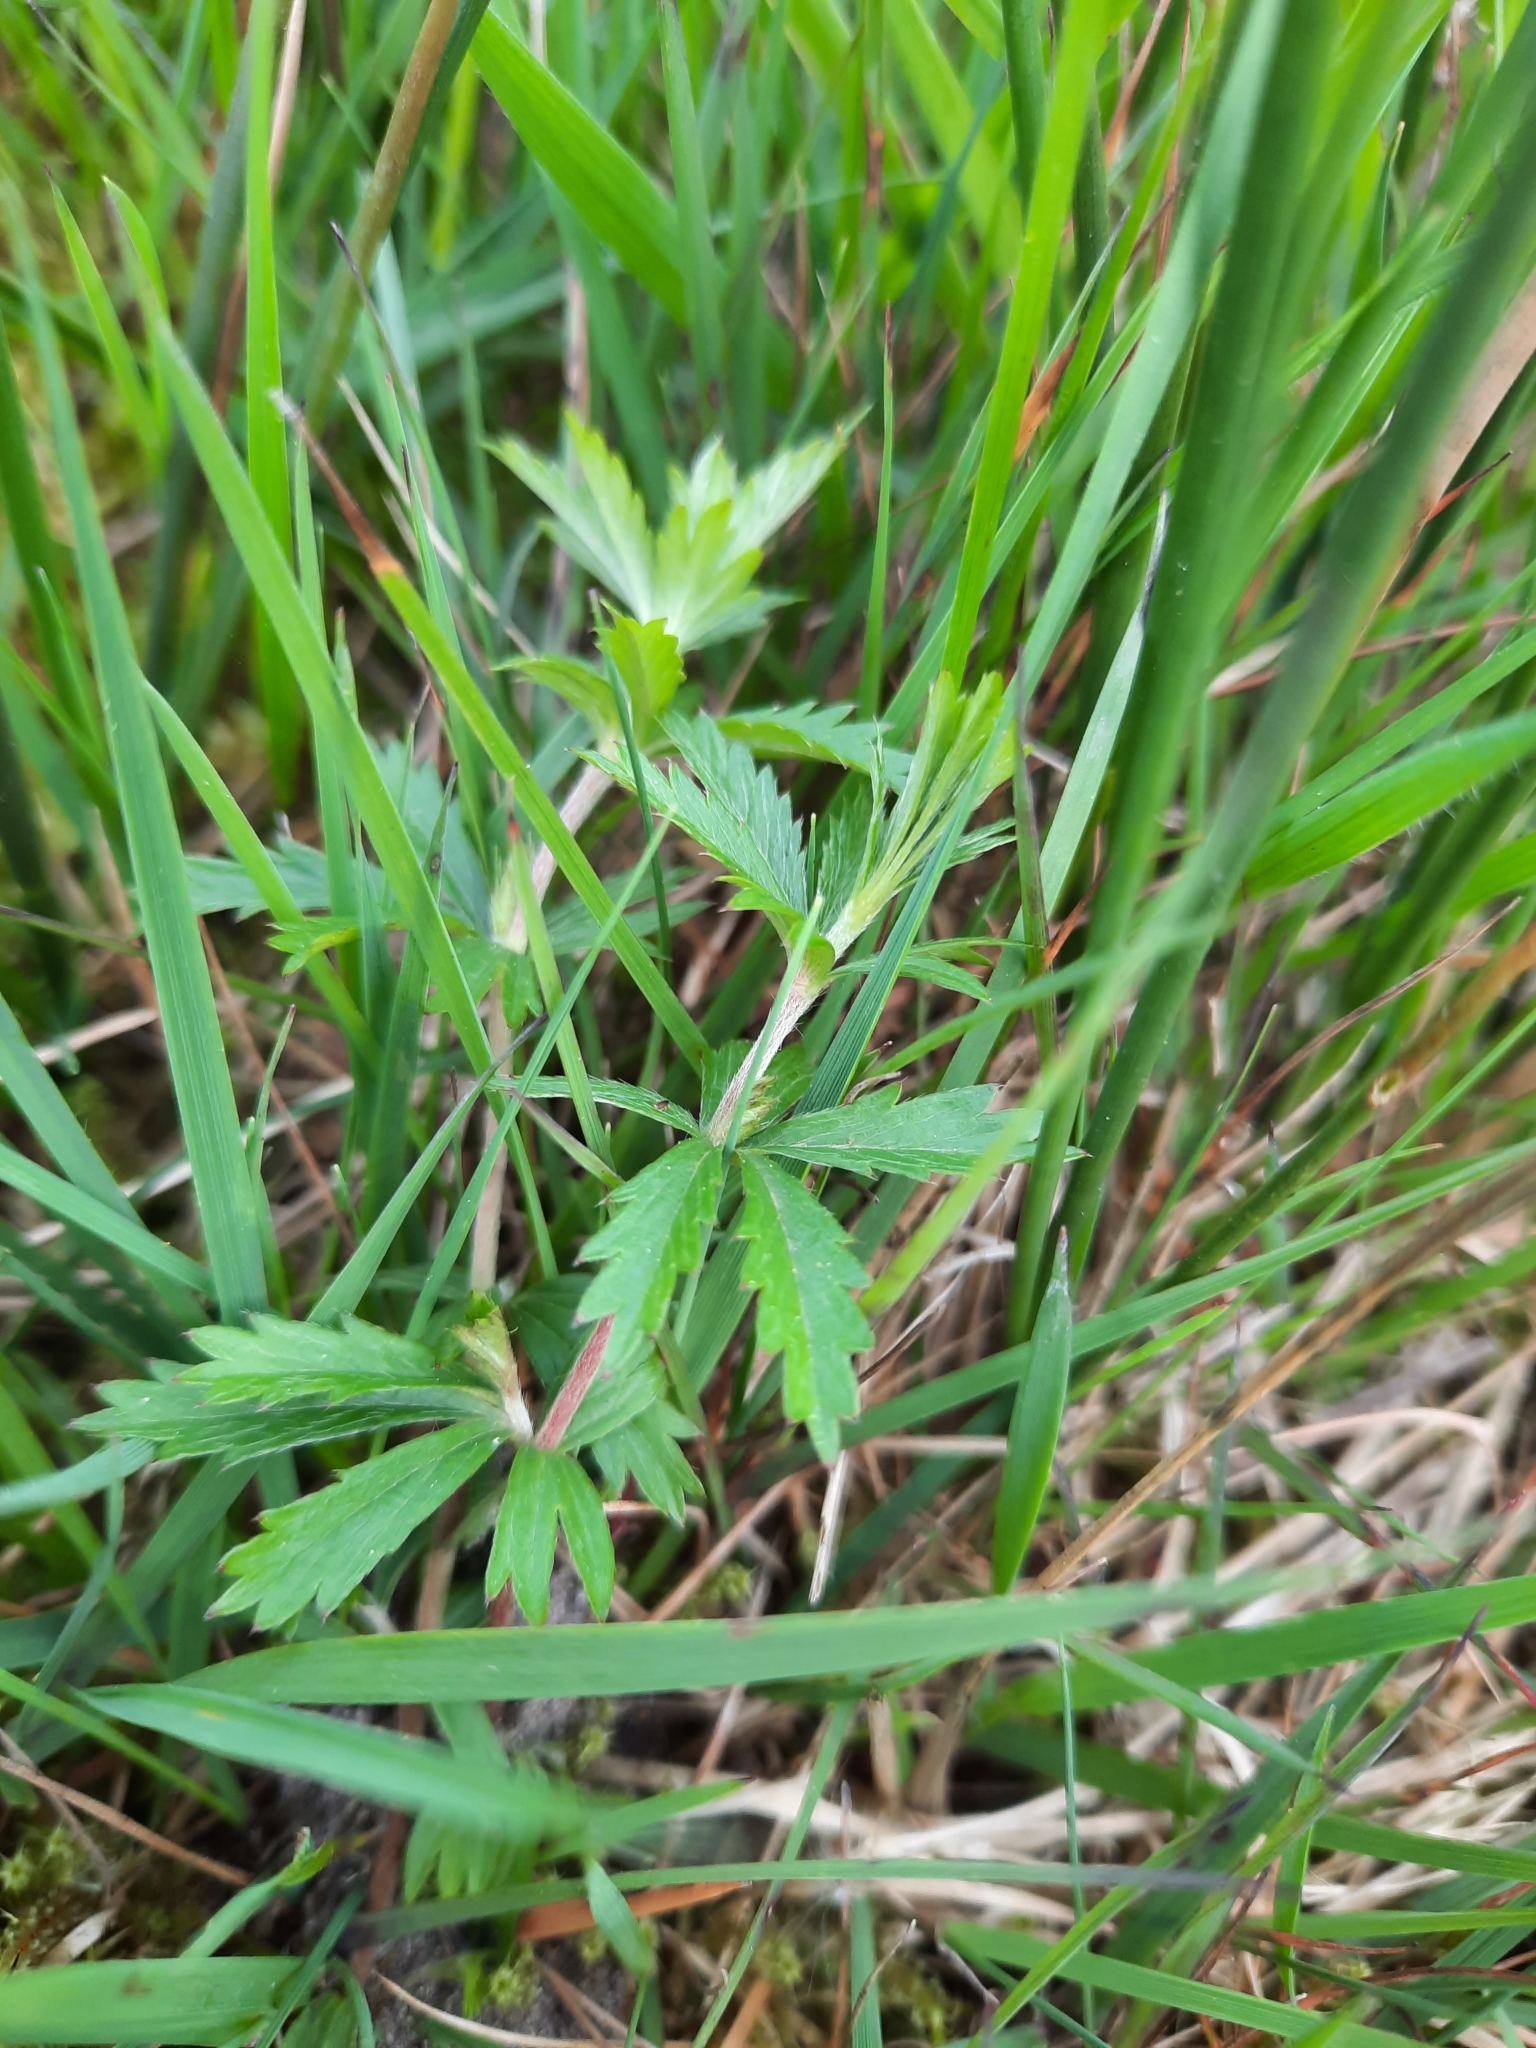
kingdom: Plantae
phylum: Tracheophyta
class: Magnoliopsida
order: Rosales
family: Rosaceae
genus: Potentilla
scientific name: Potentilla erecta
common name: Tormentil
